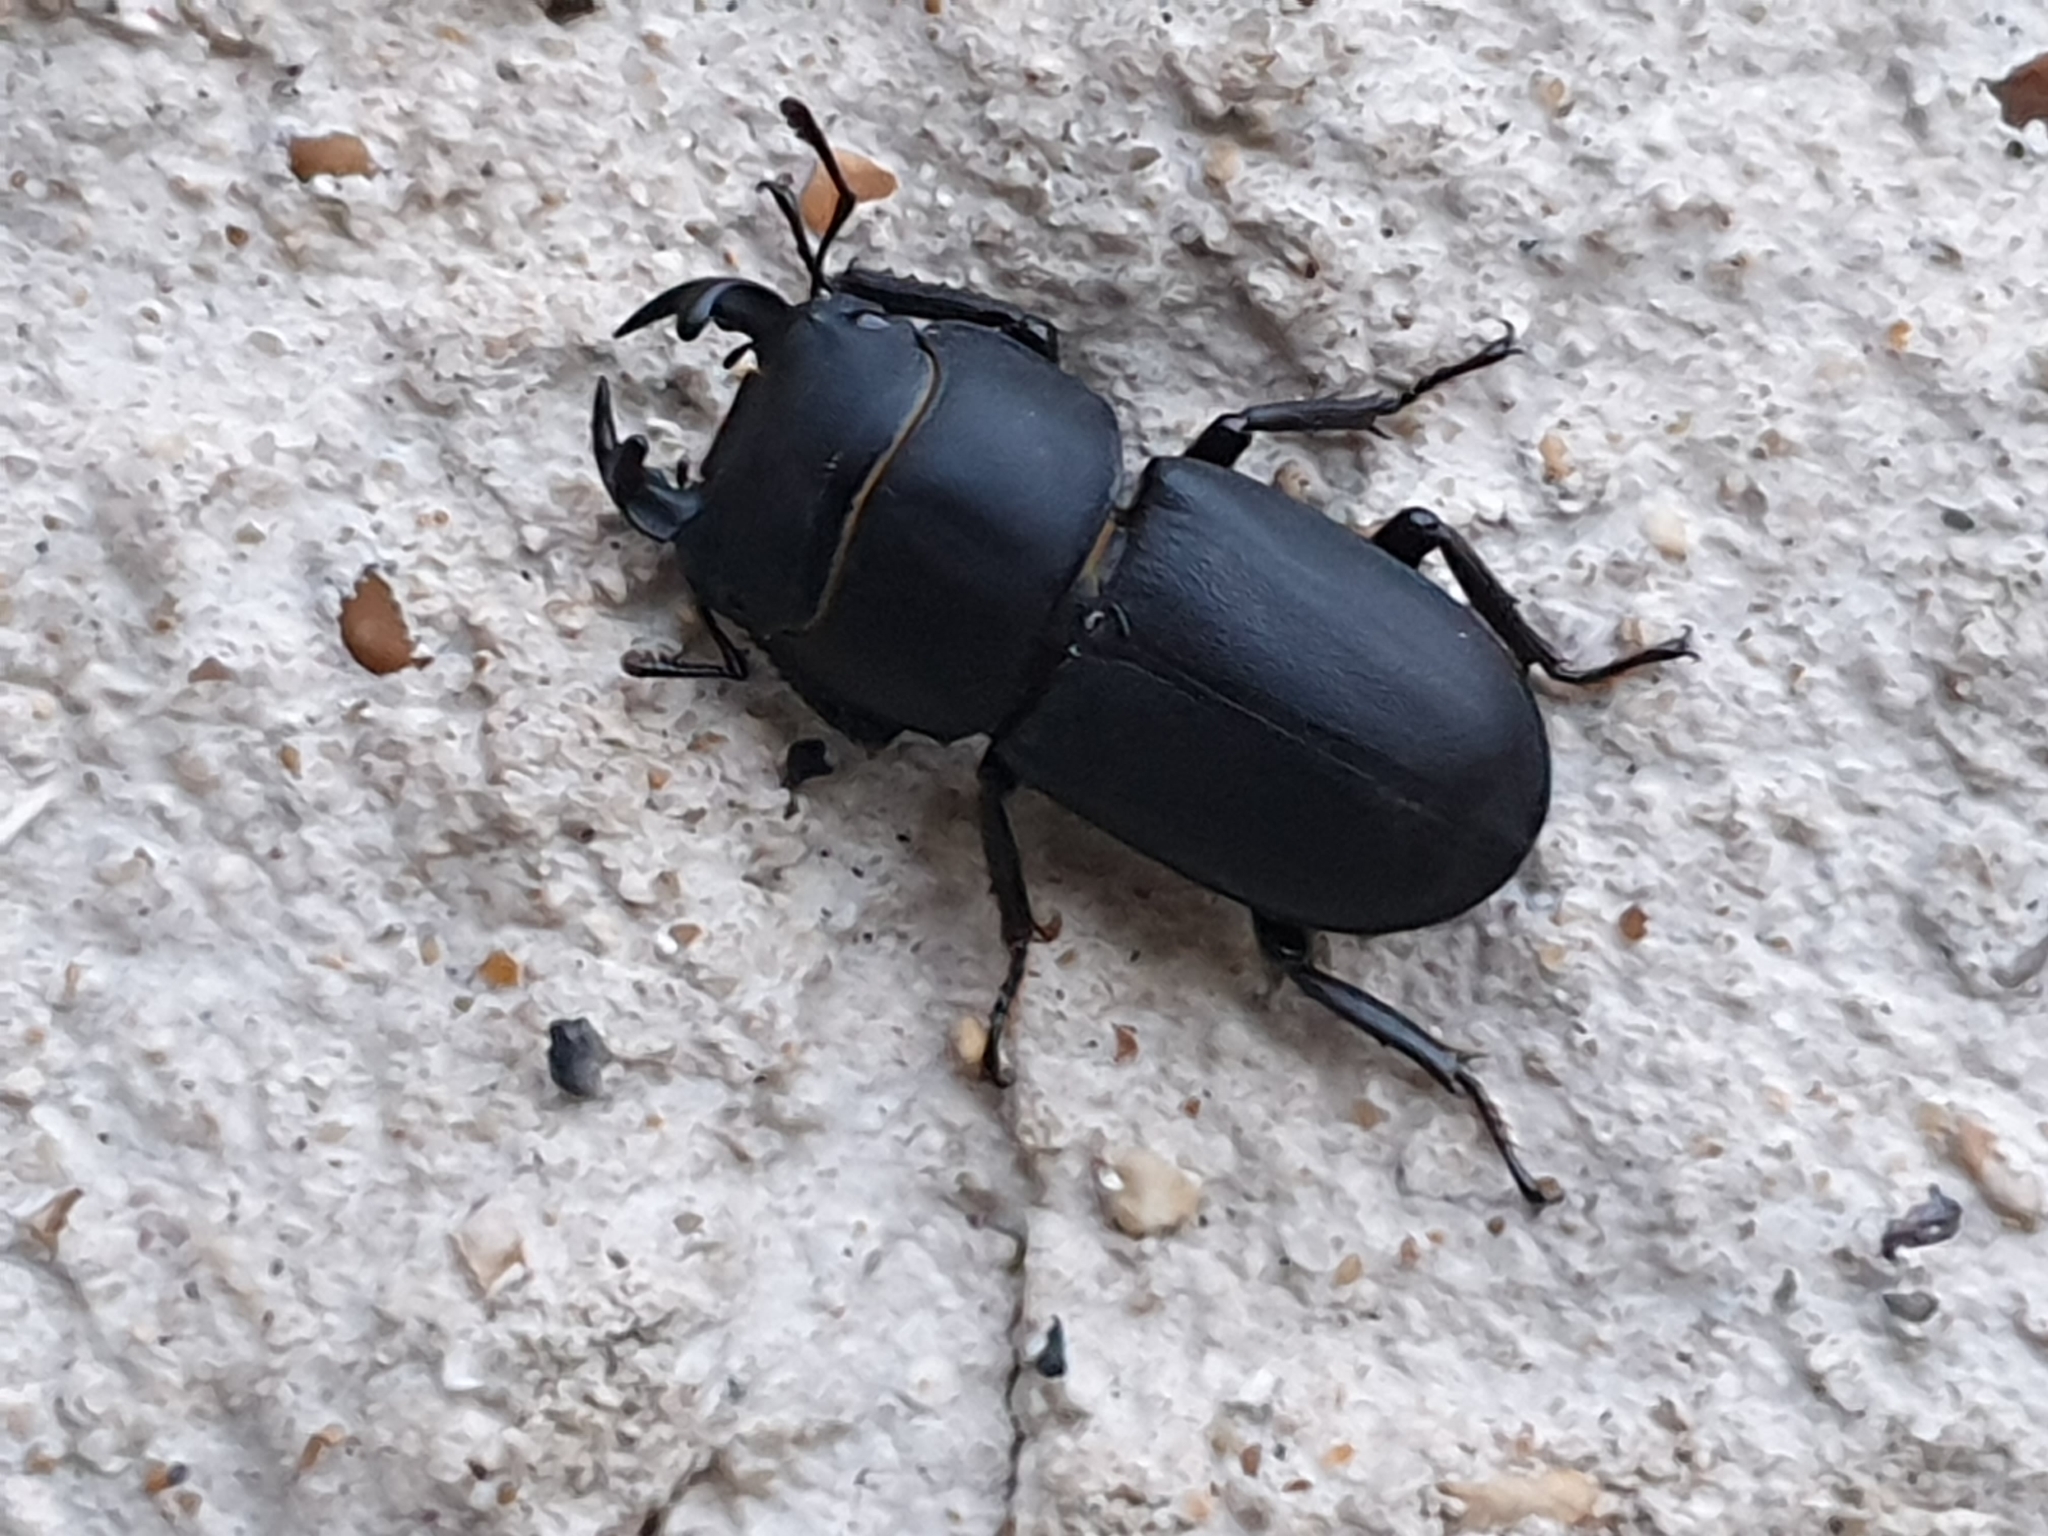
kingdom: Animalia
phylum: Arthropoda
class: Insecta
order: Coleoptera
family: Lucanidae
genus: Dorcus
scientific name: Dorcus parallelipipedus
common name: Lesser stag beetle
